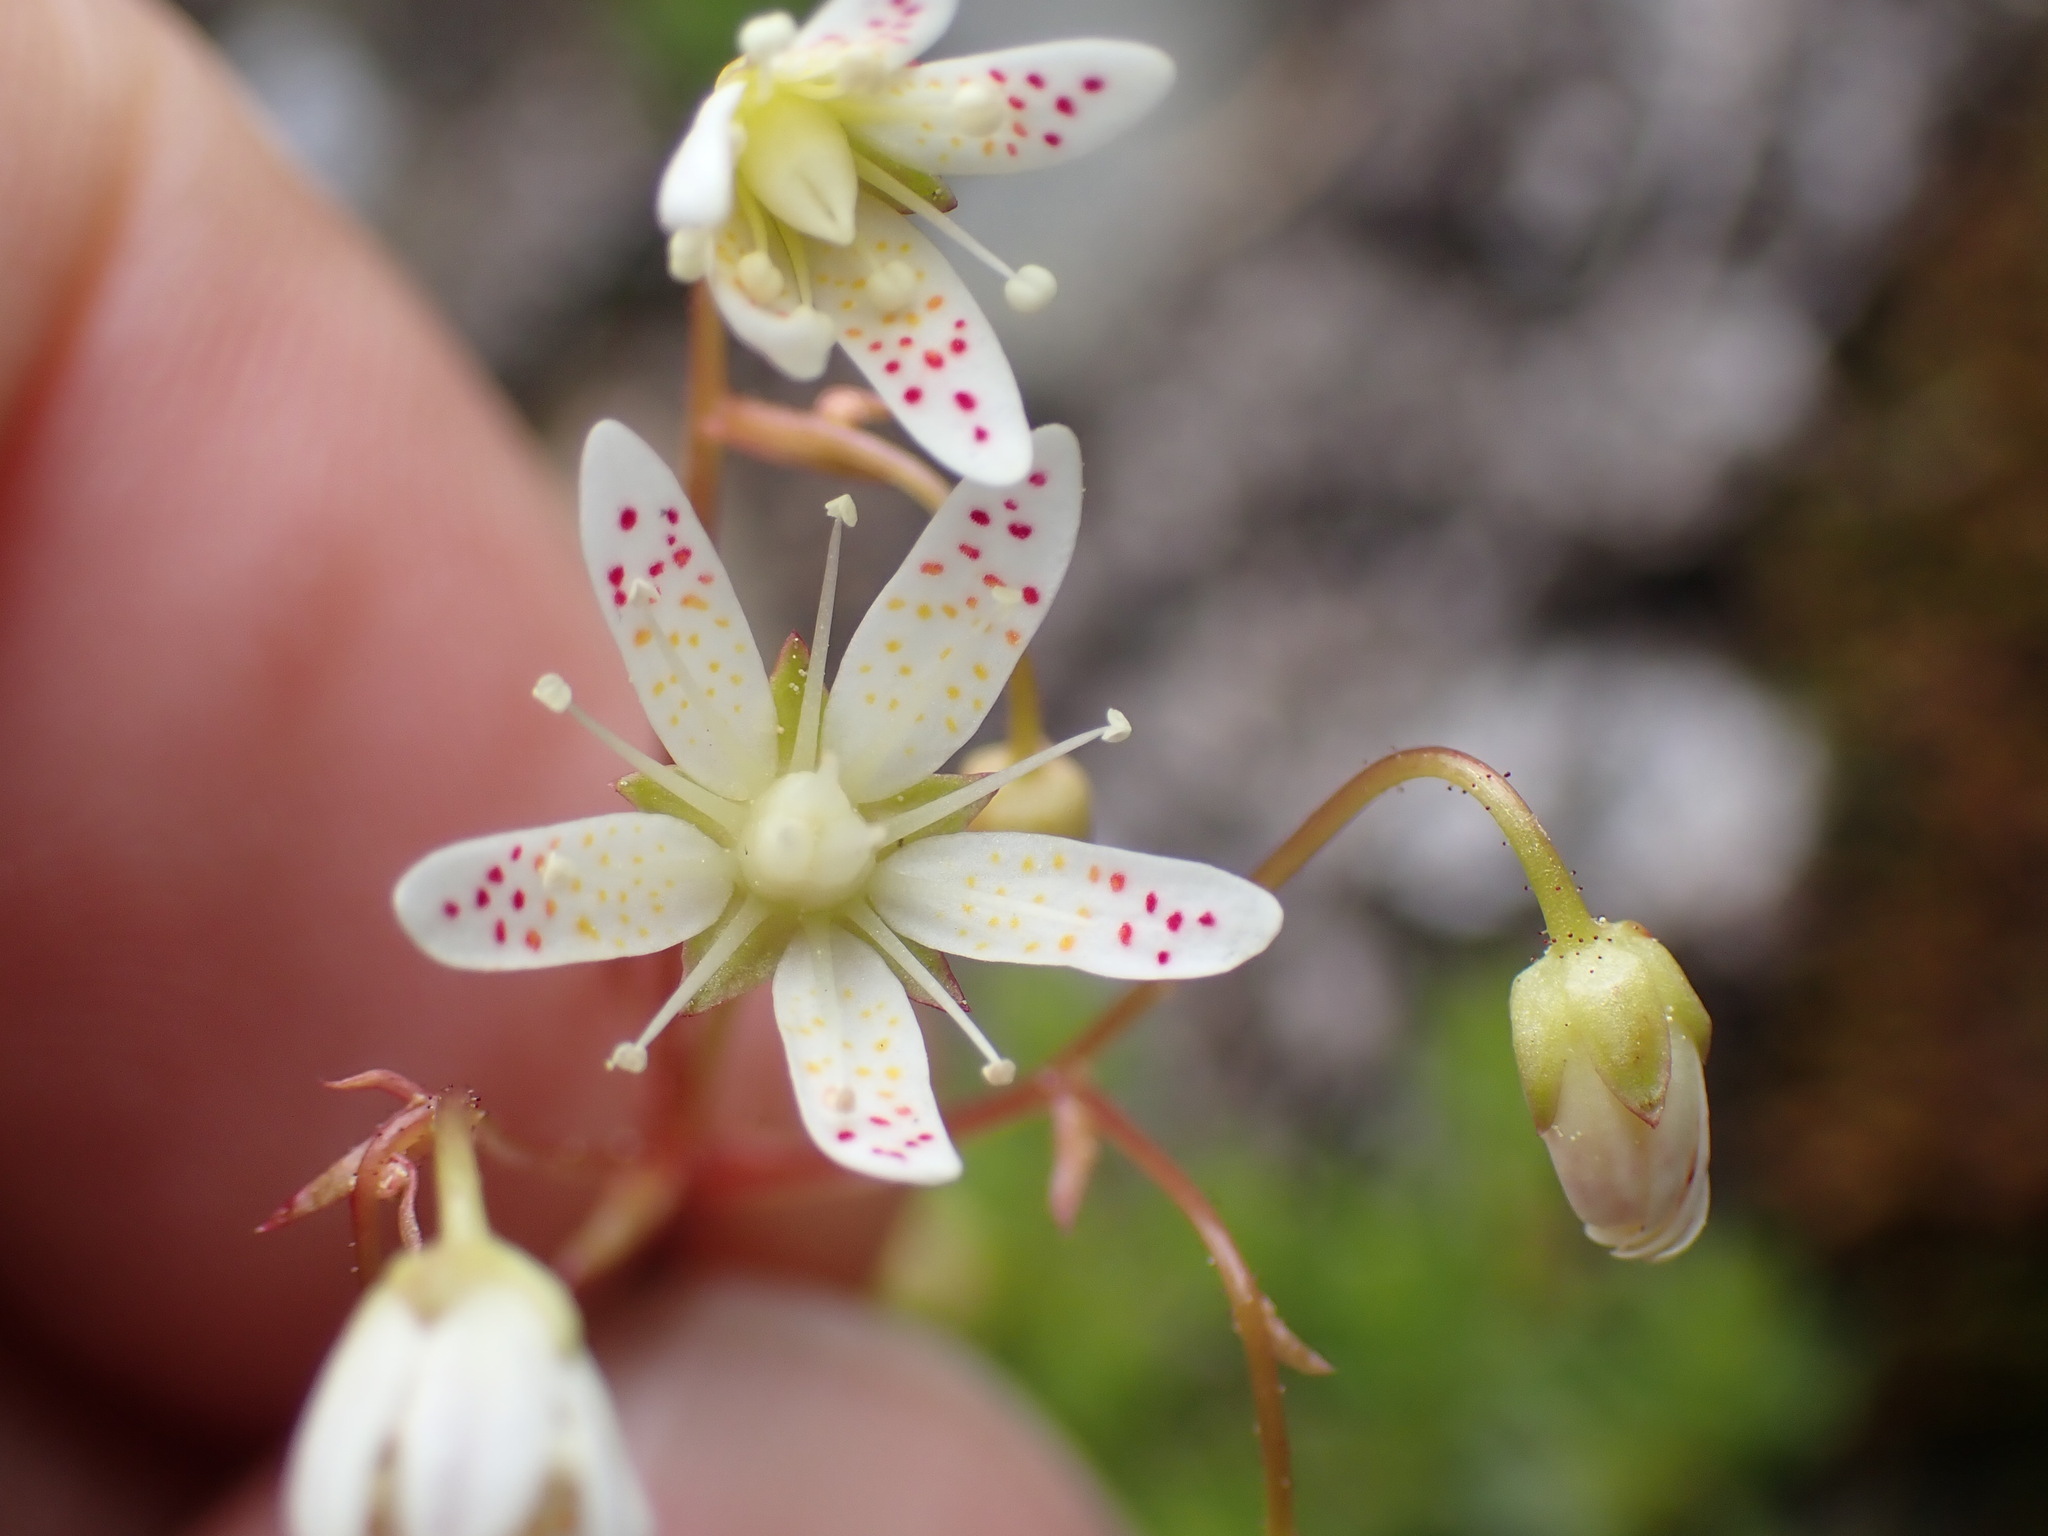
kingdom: Plantae
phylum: Tracheophyta
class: Magnoliopsida
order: Saxifragales
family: Saxifragaceae
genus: Saxifraga
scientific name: Saxifraga bronchialis
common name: Matted saxifrage
